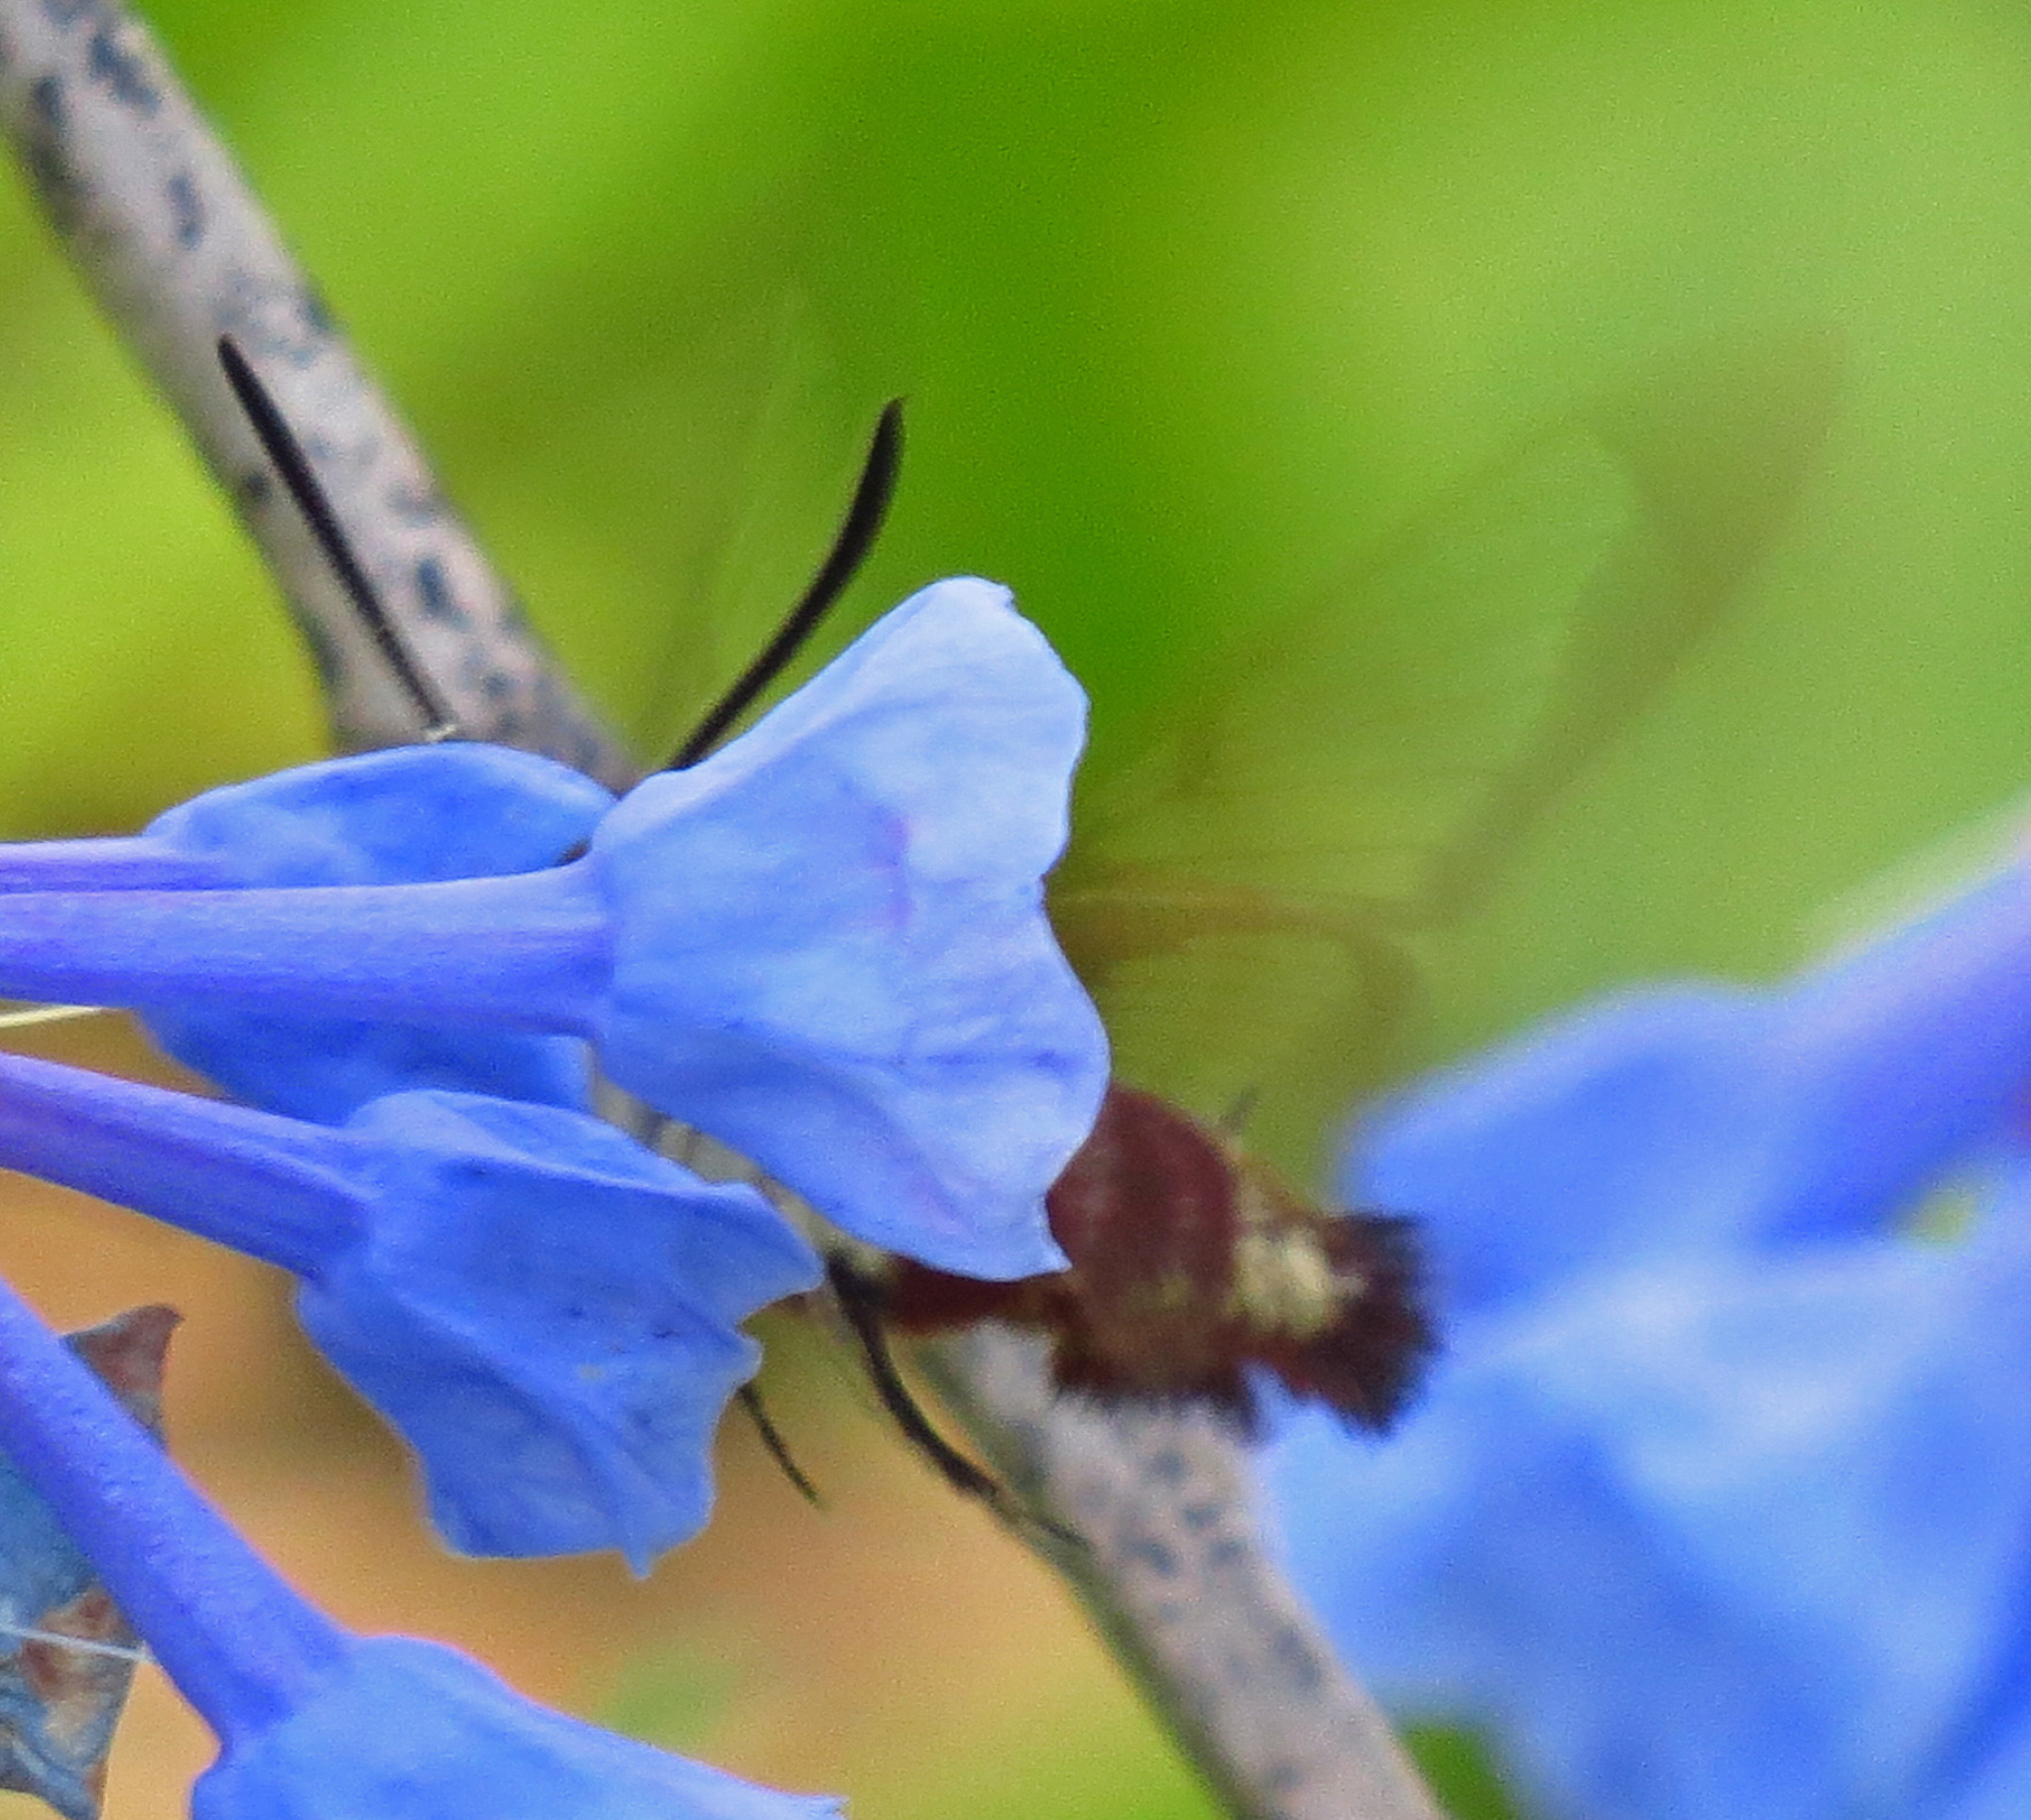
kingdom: Animalia
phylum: Arthropoda
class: Insecta
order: Lepidoptera
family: Sphingidae
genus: Hemaris
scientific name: Hemaris thysbe
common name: Common clear-wing
